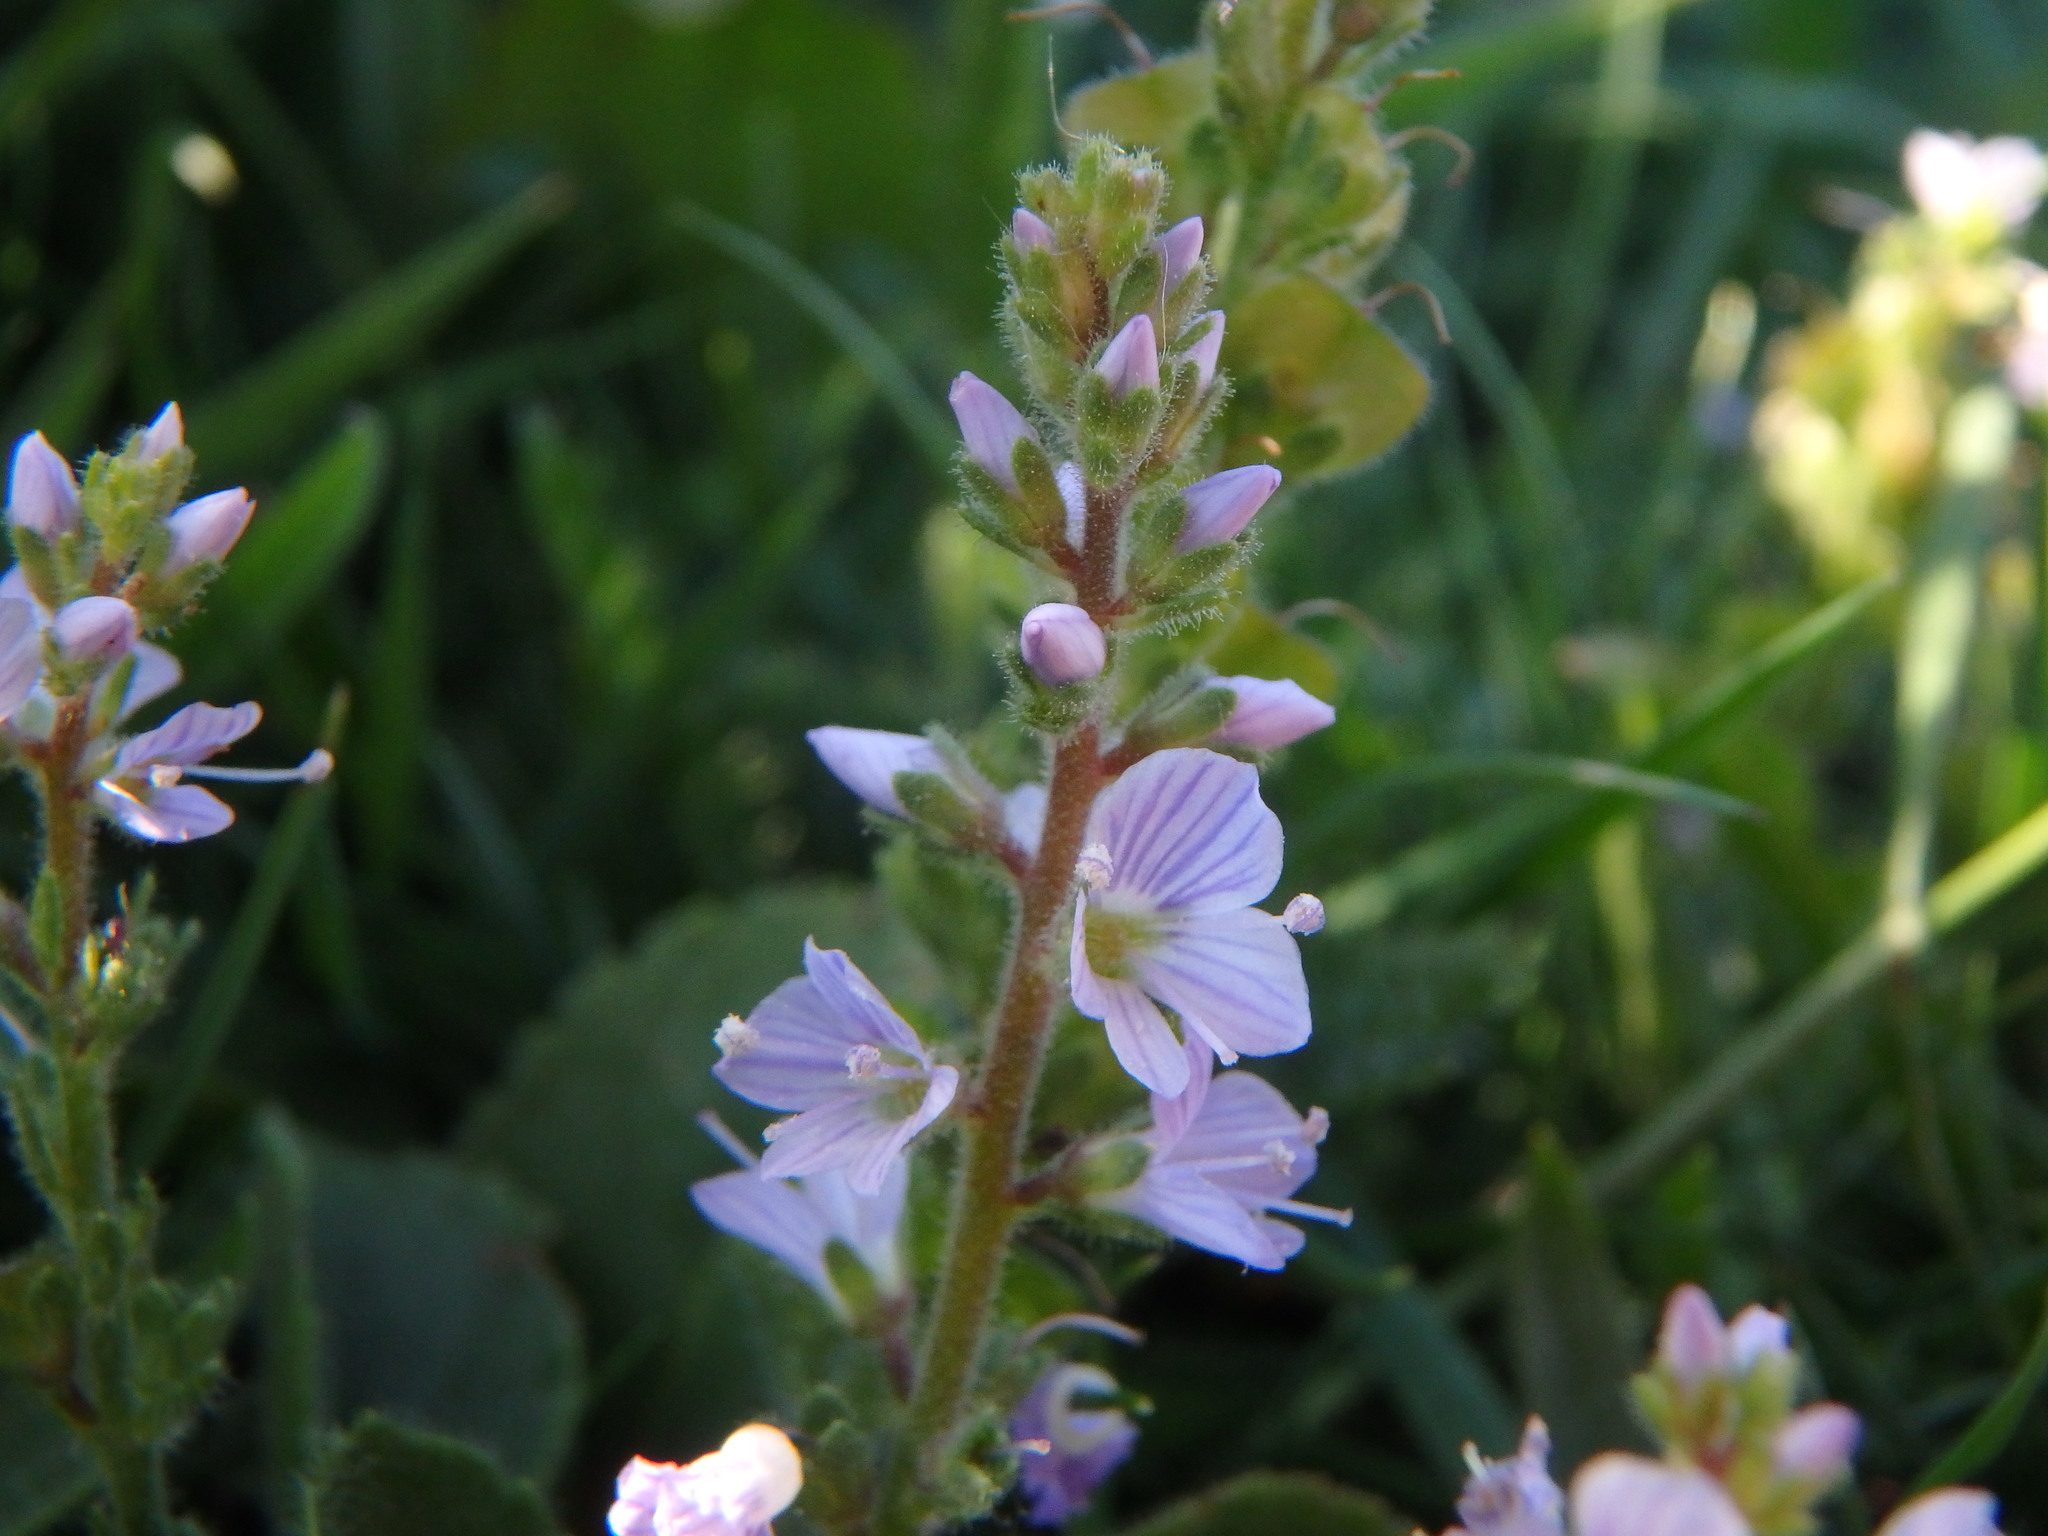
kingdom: Plantae
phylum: Tracheophyta
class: Magnoliopsida
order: Lamiales
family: Plantaginaceae
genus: Veronica
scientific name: Veronica officinalis
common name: Common speedwell
